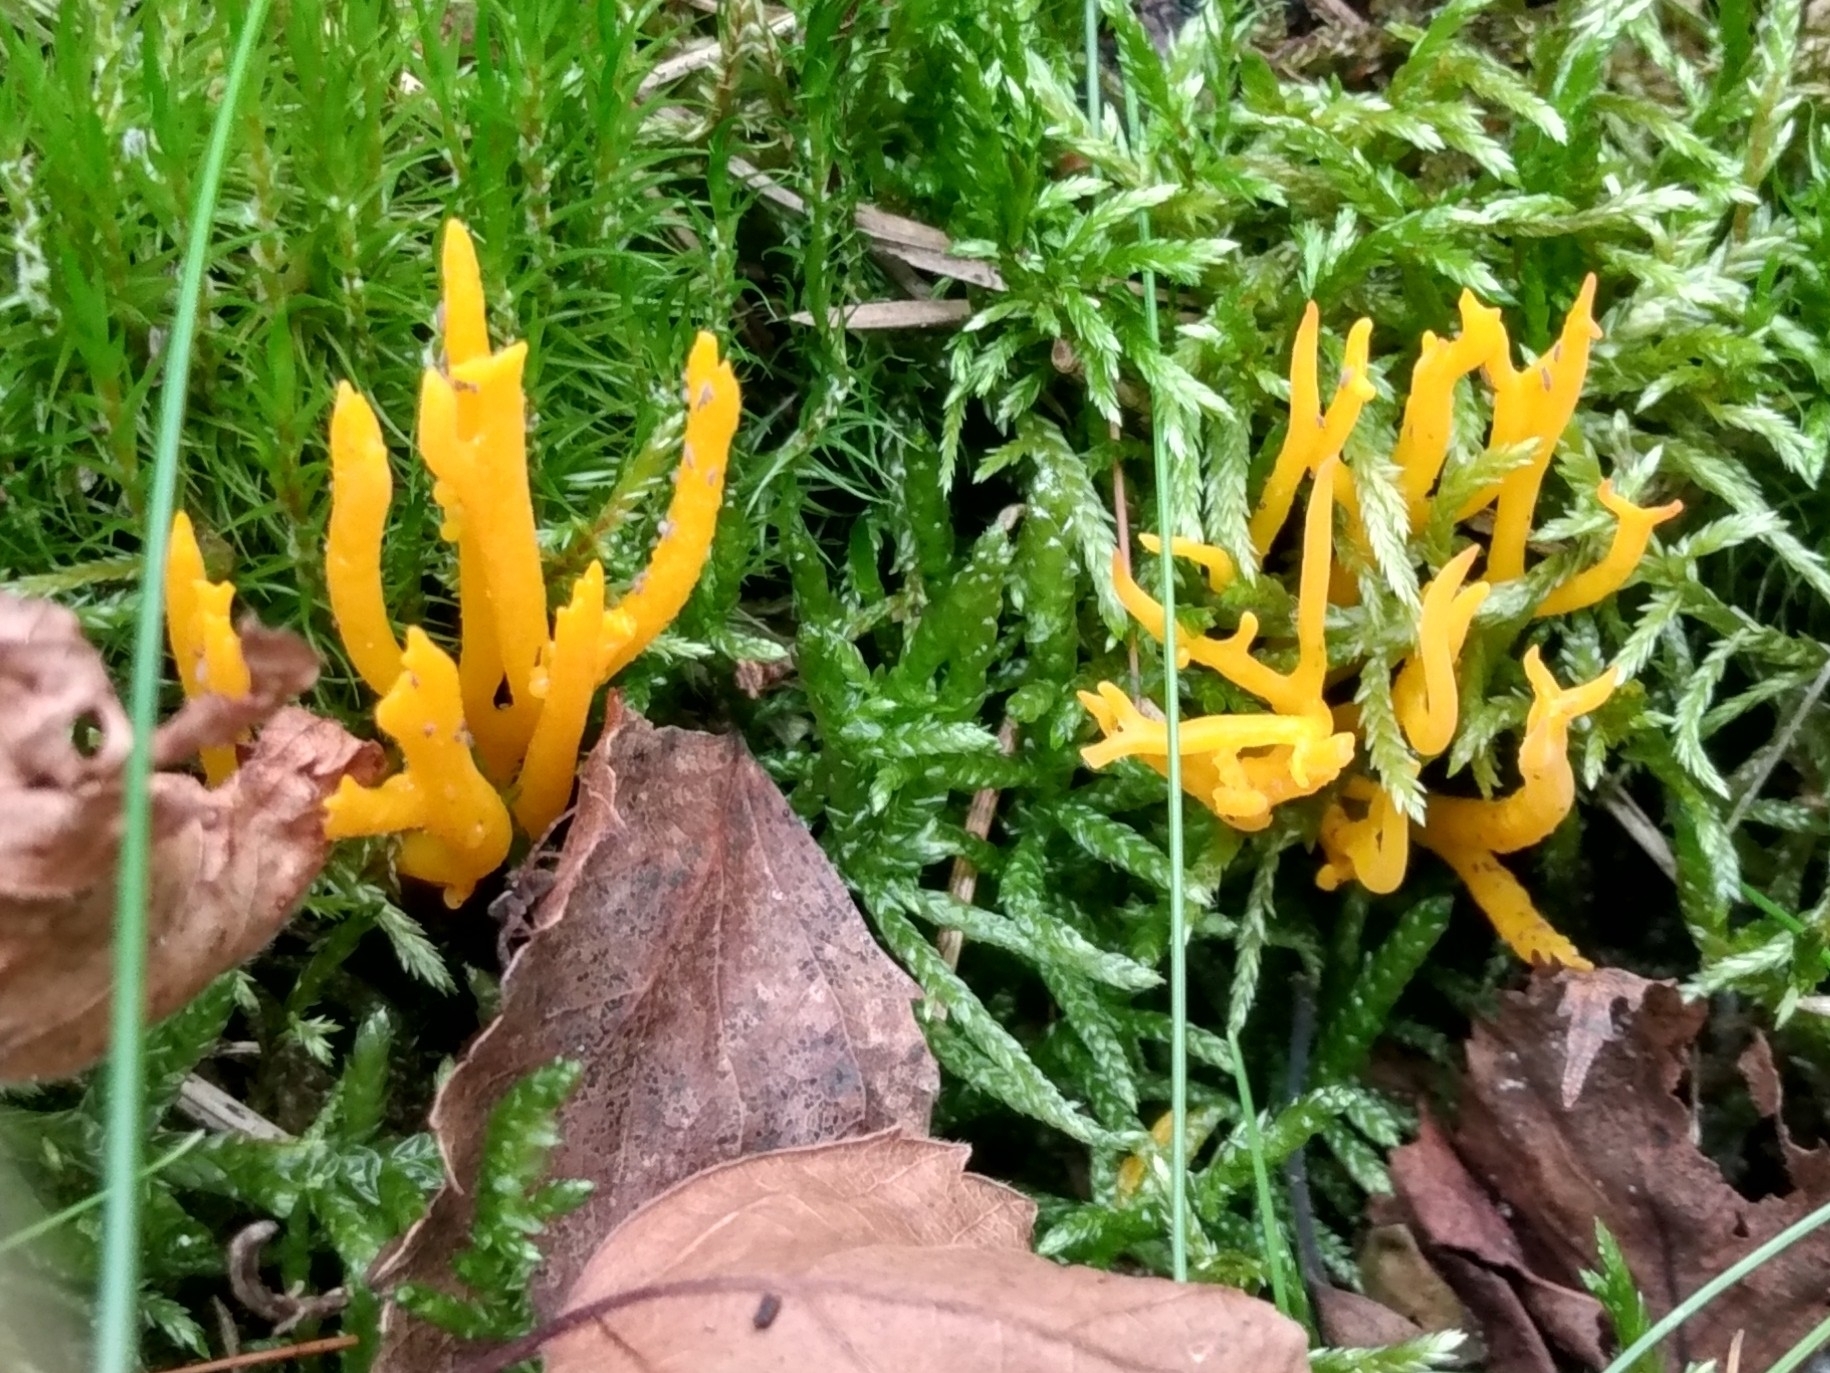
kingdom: Fungi
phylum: Basidiomycota
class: Dacrymycetes
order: Dacrymycetales
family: Dacrymycetaceae
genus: Calocera
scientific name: Calocera viscosa
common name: Yellow stagshorn
